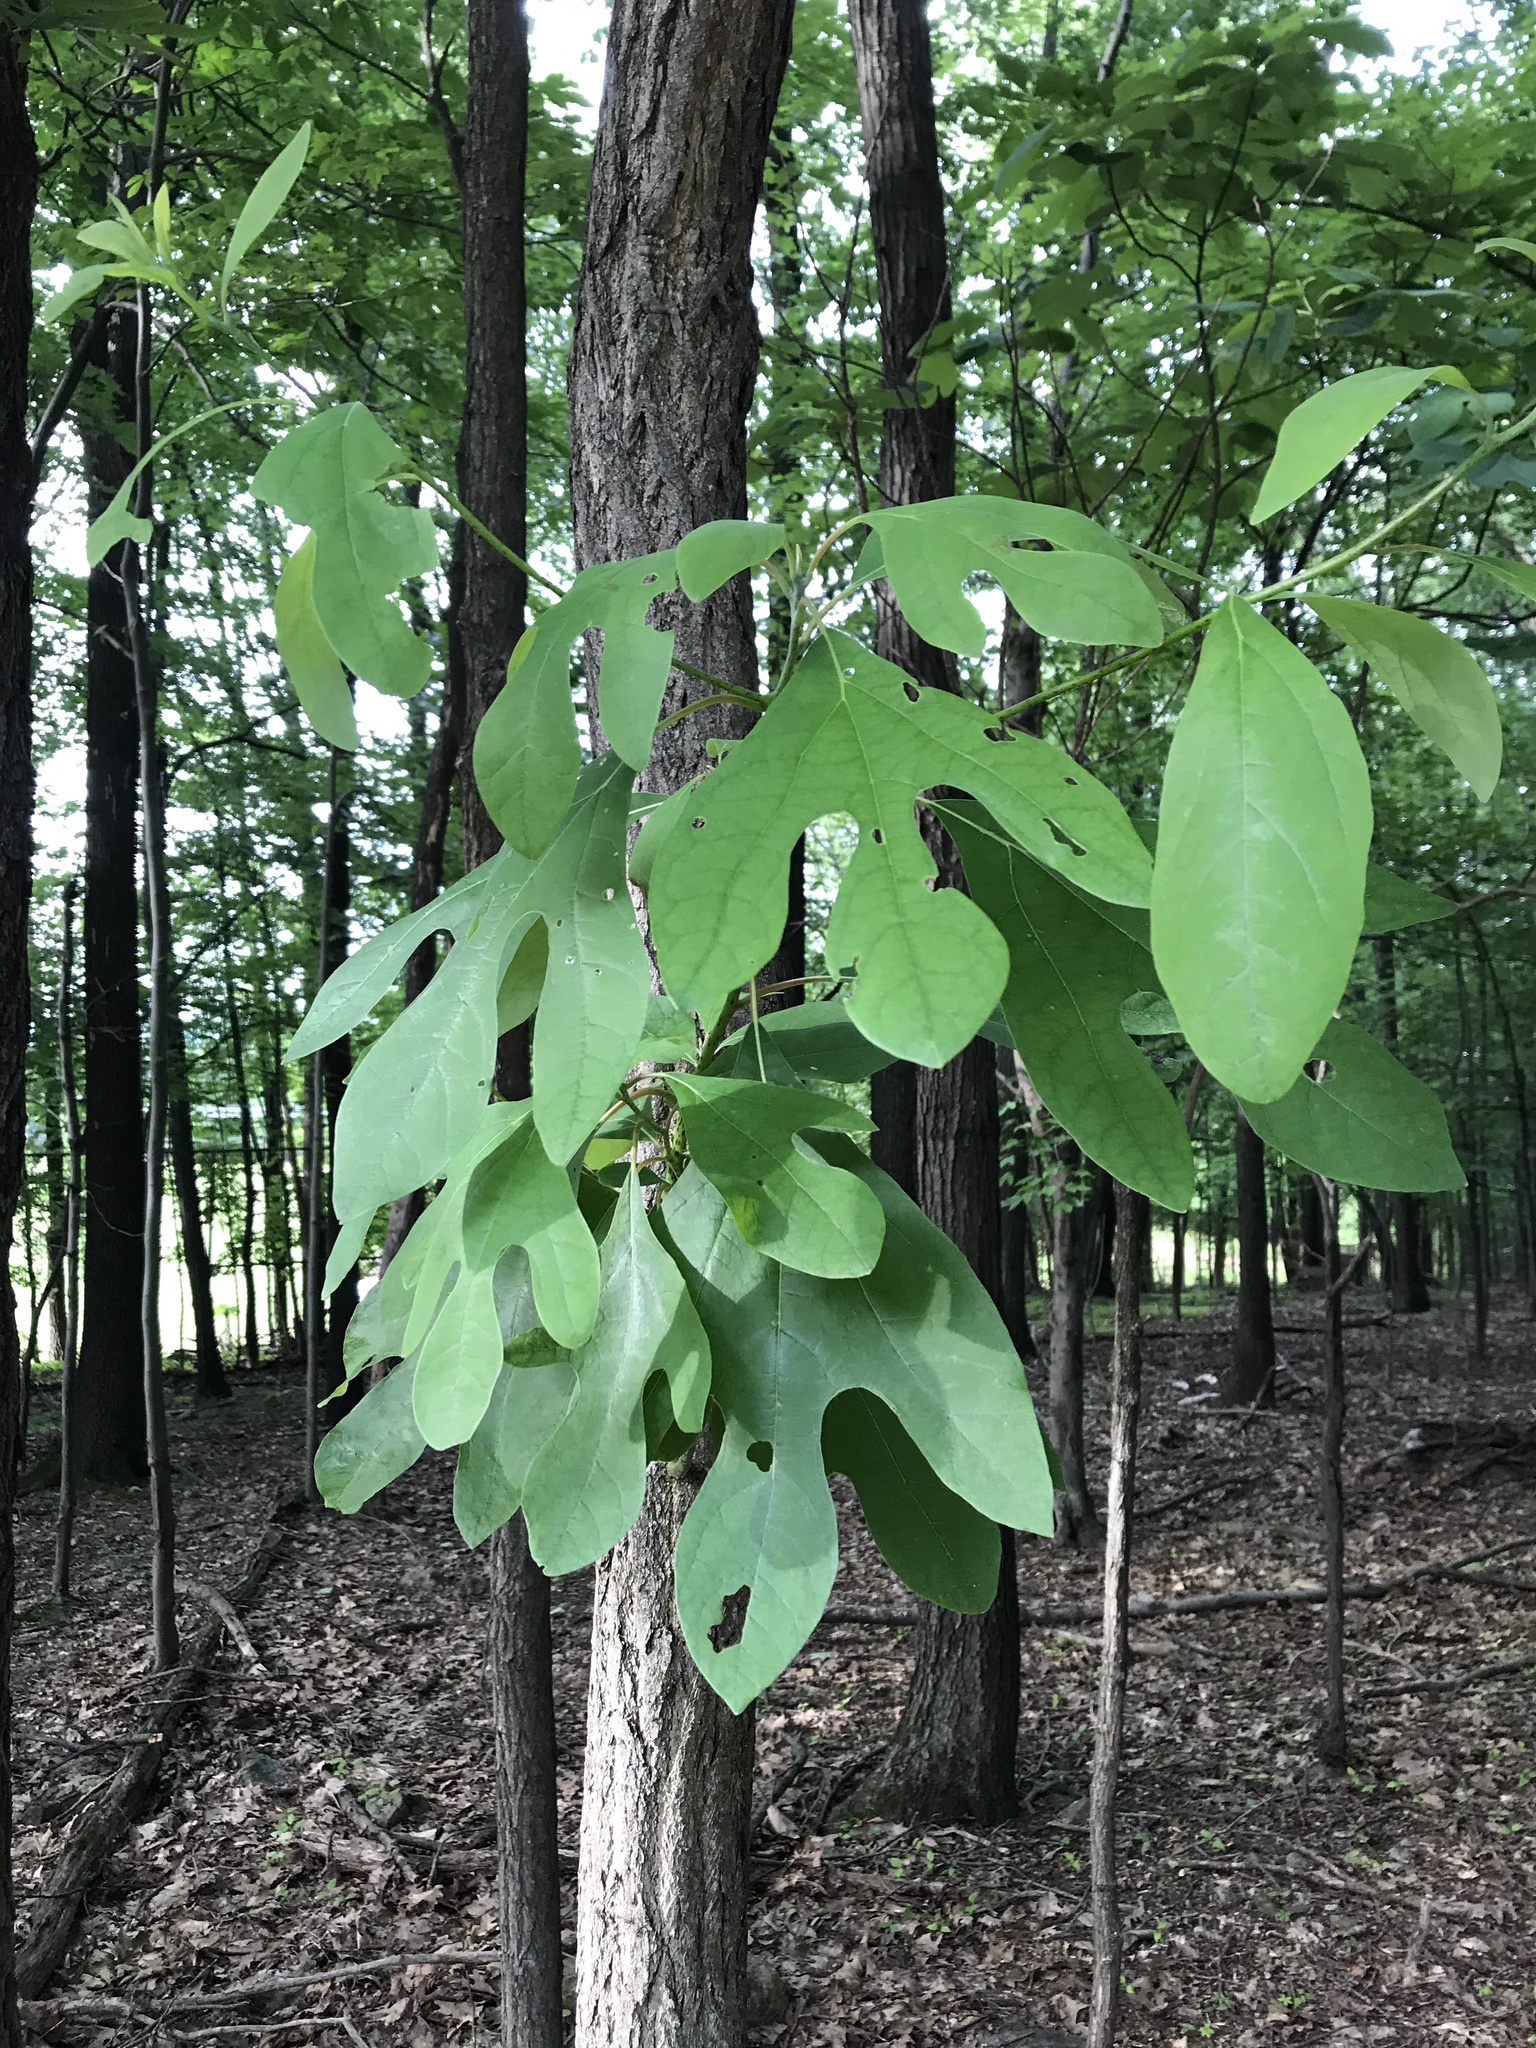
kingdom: Plantae
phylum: Tracheophyta
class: Magnoliopsida
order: Laurales
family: Lauraceae
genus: Sassafras
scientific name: Sassafras albidum
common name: Sassafras
